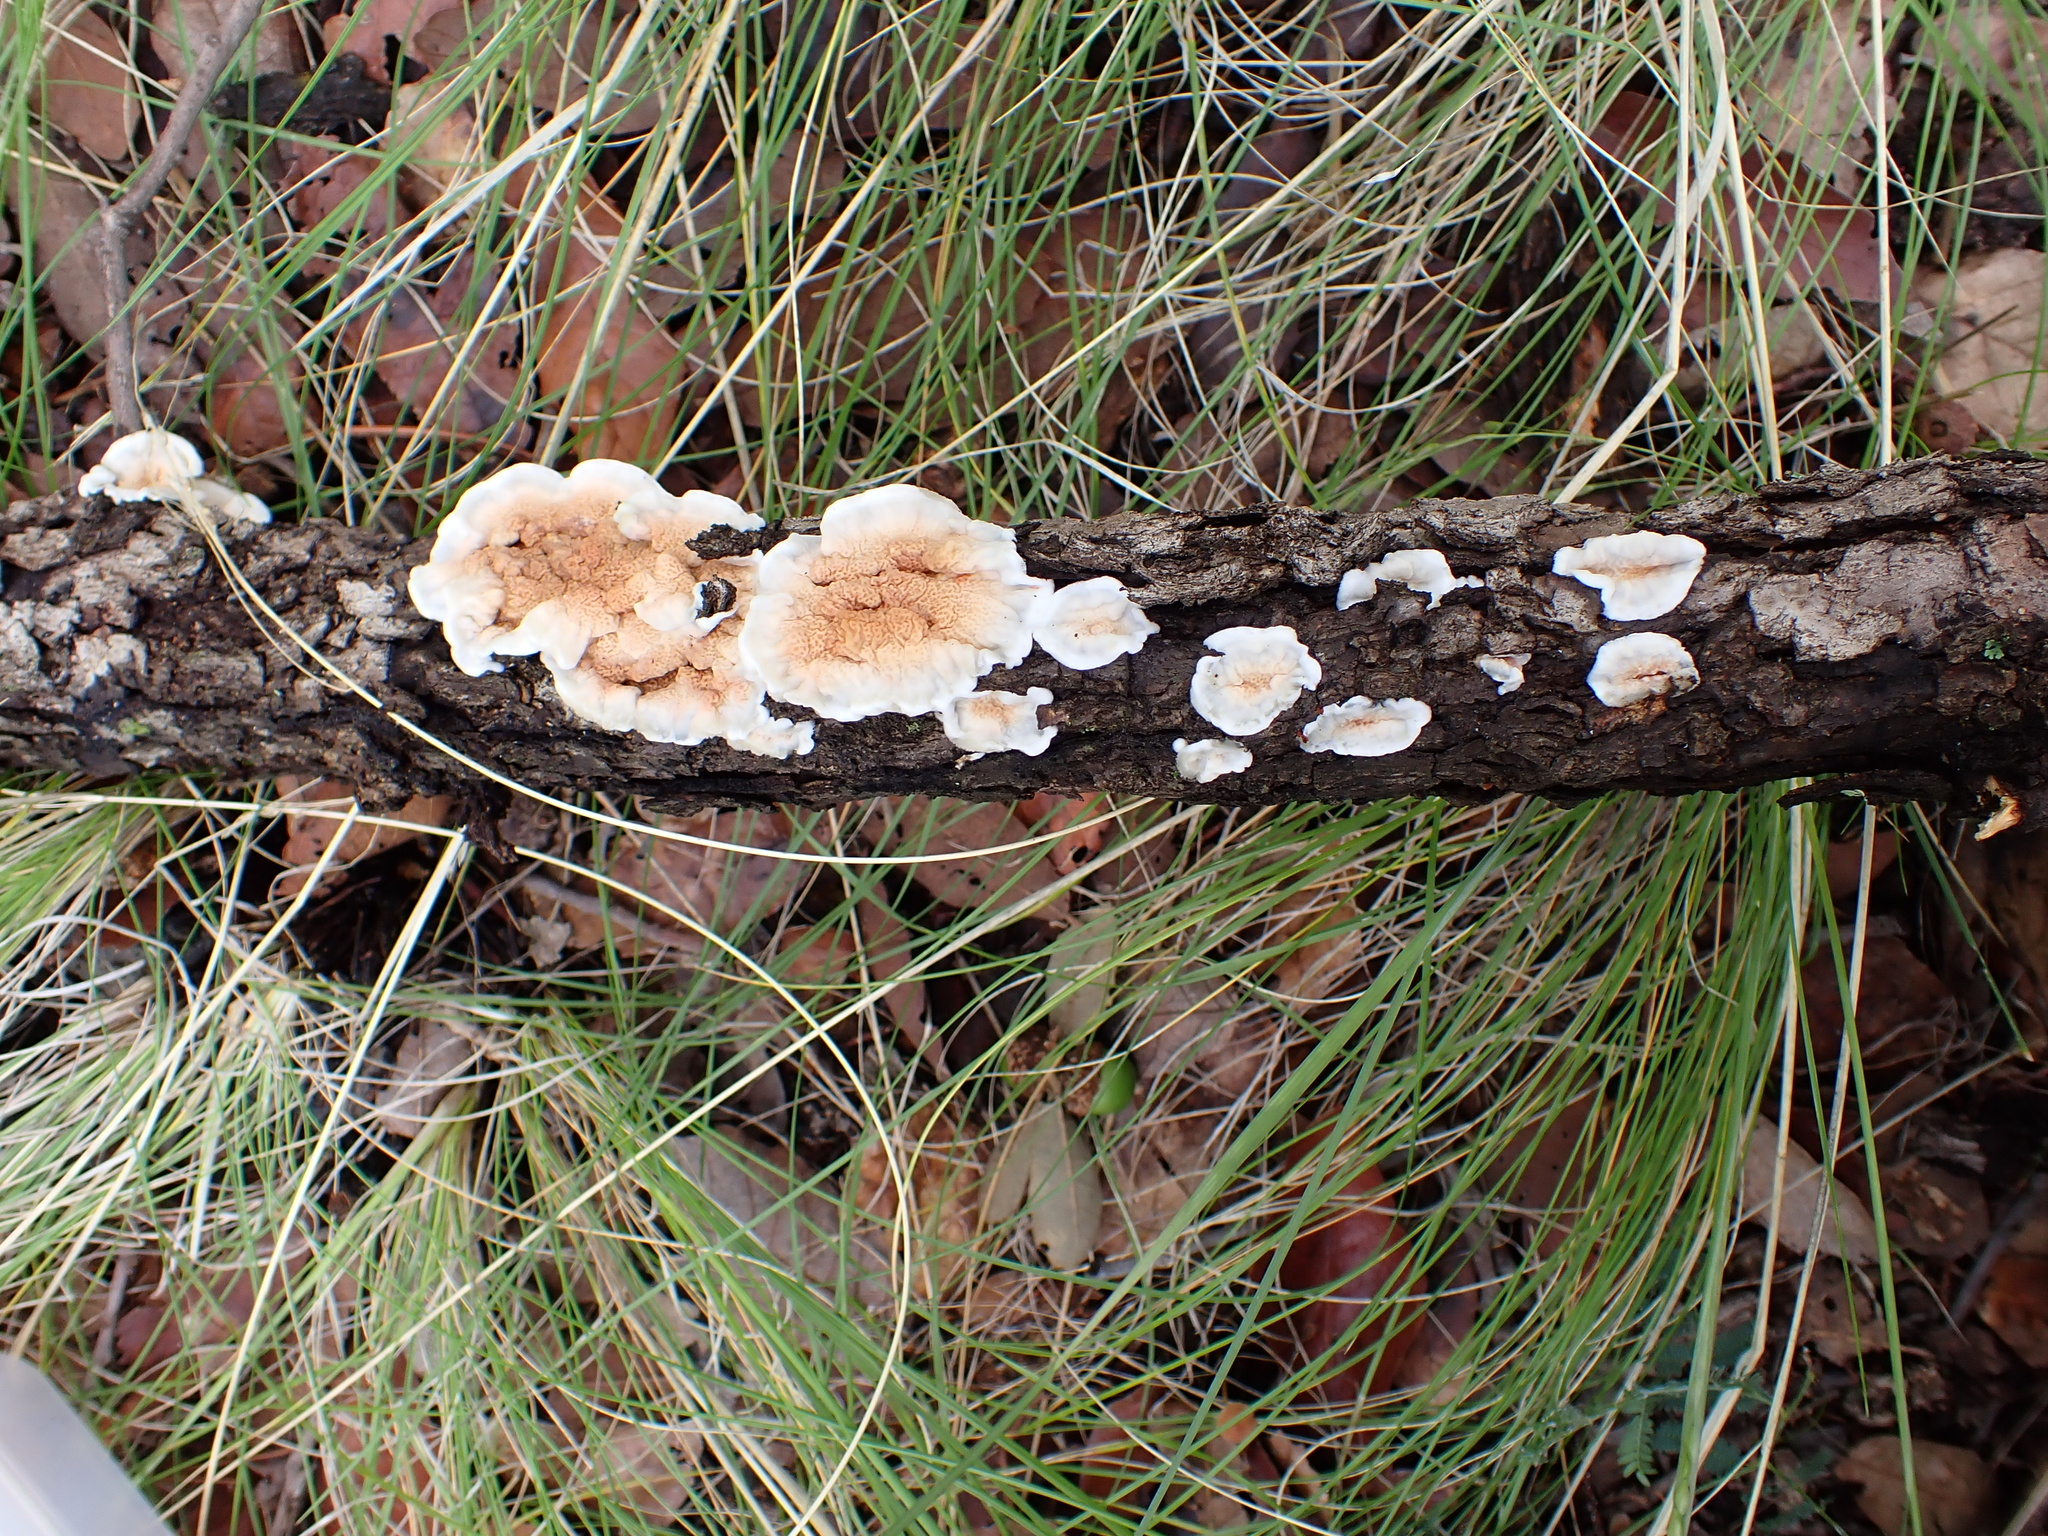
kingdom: Fungi
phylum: Basidiomycota
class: Agaricomycetes
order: Polyporales
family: Irpicaceae
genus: Byssomerulius
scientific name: Byssomerulius corium
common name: Netted crust
